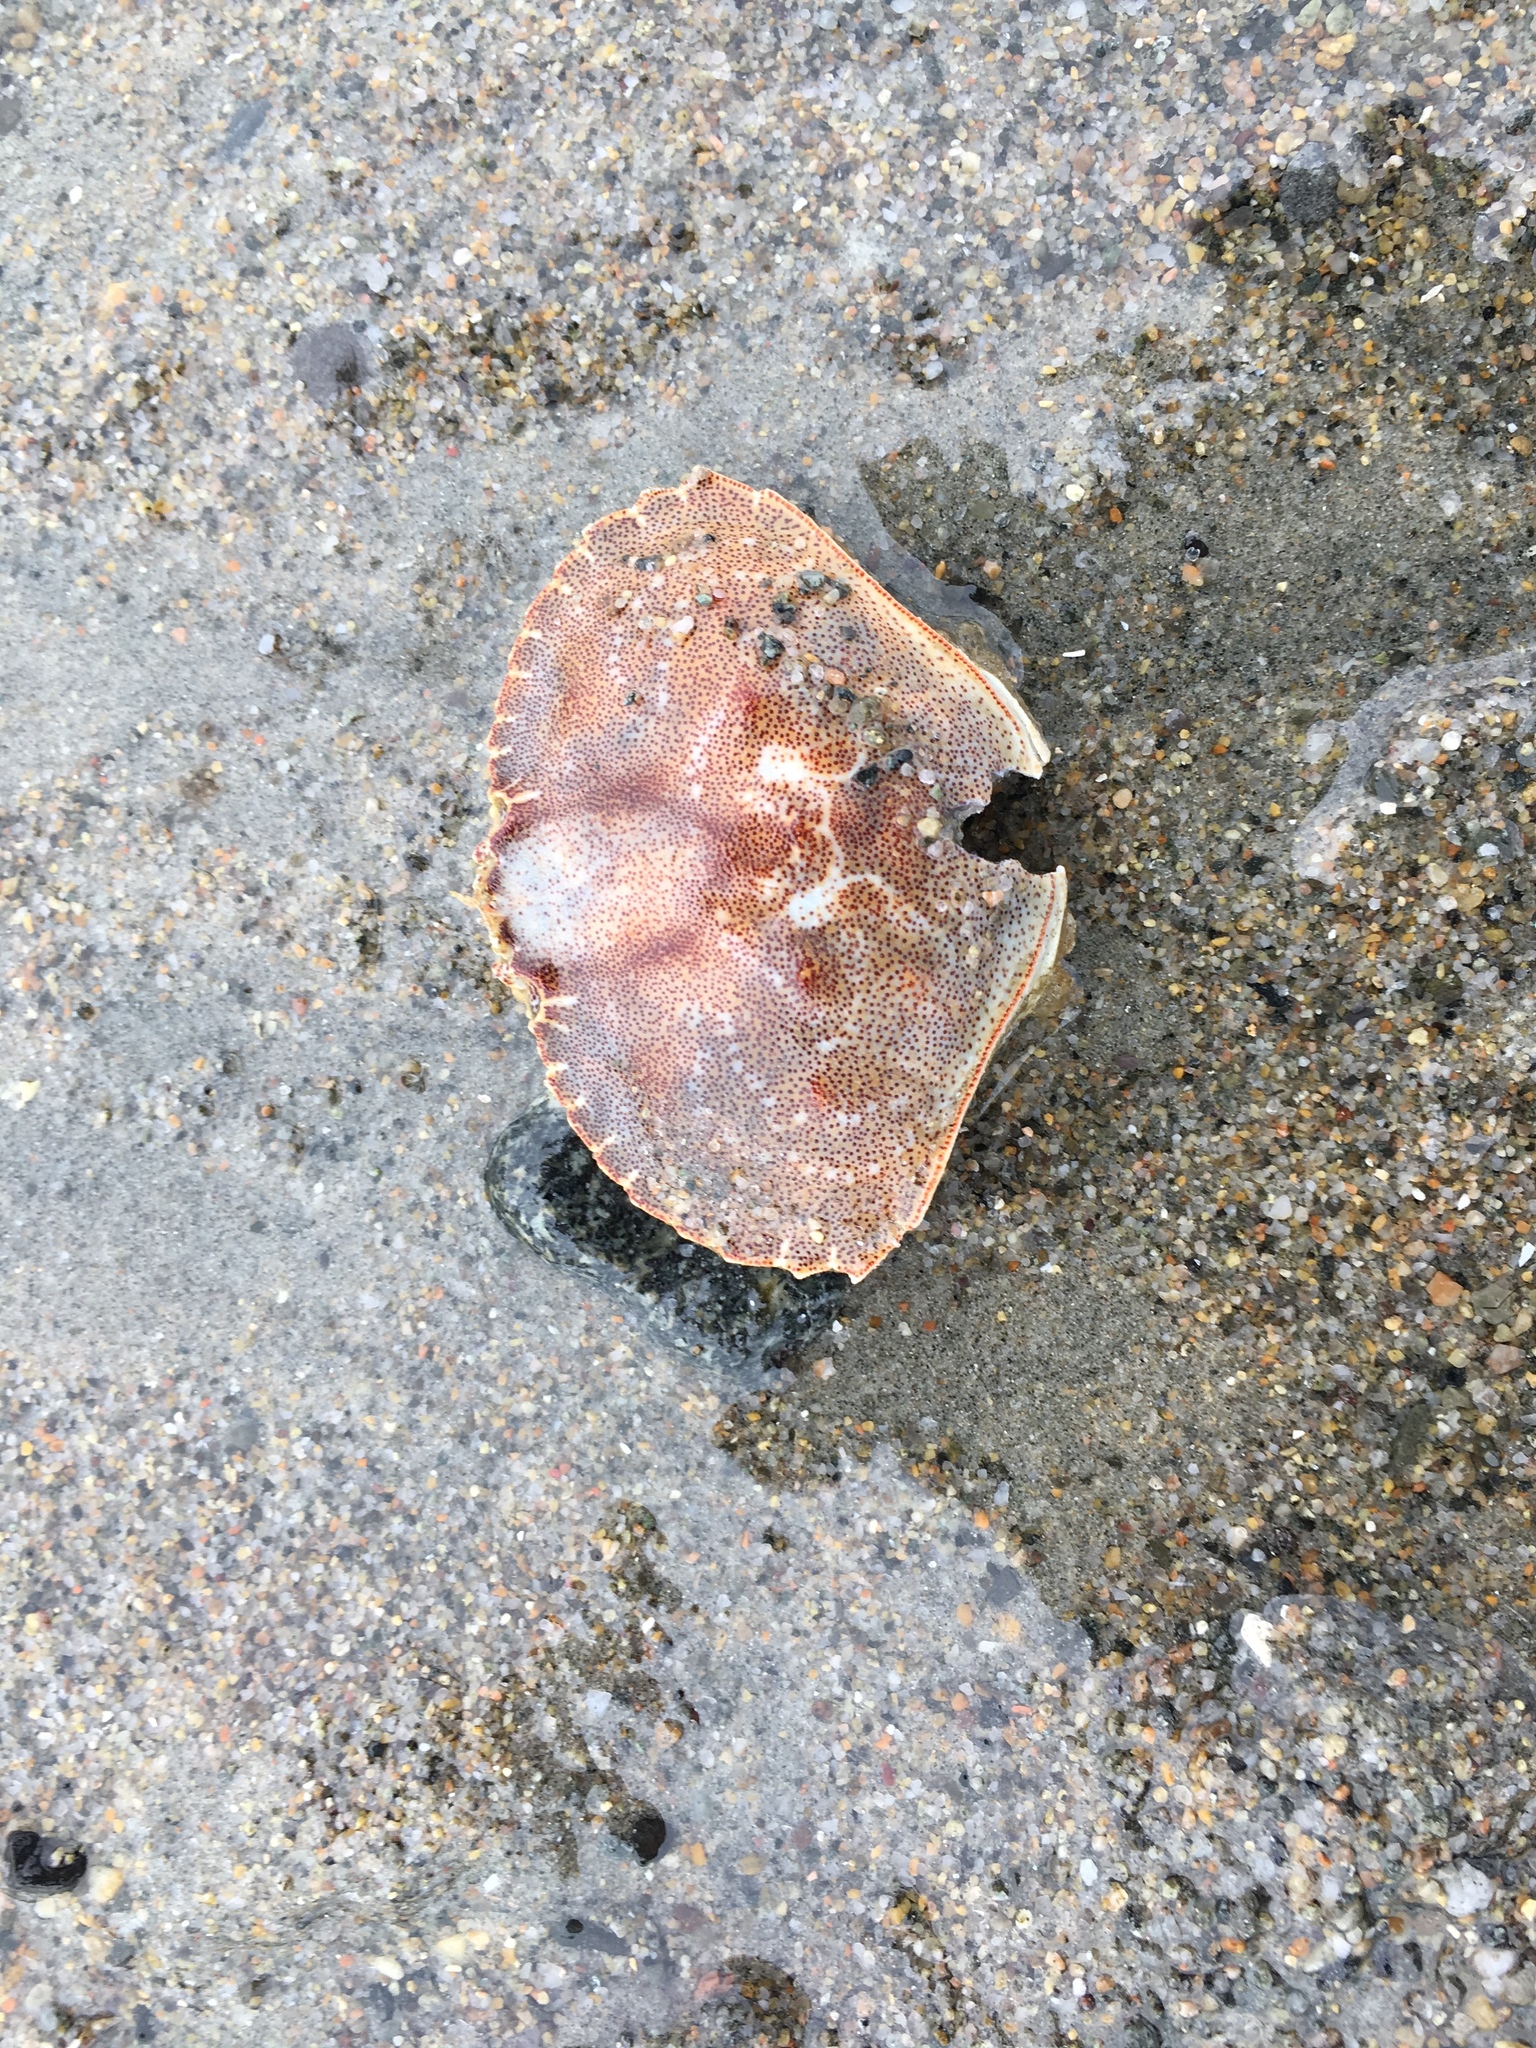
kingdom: Animalia
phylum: Arthropoda
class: Malacostraca
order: Decapoda
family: Cancridae
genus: Cancer
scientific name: Cancer irroratus
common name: Atlantic rock crab
